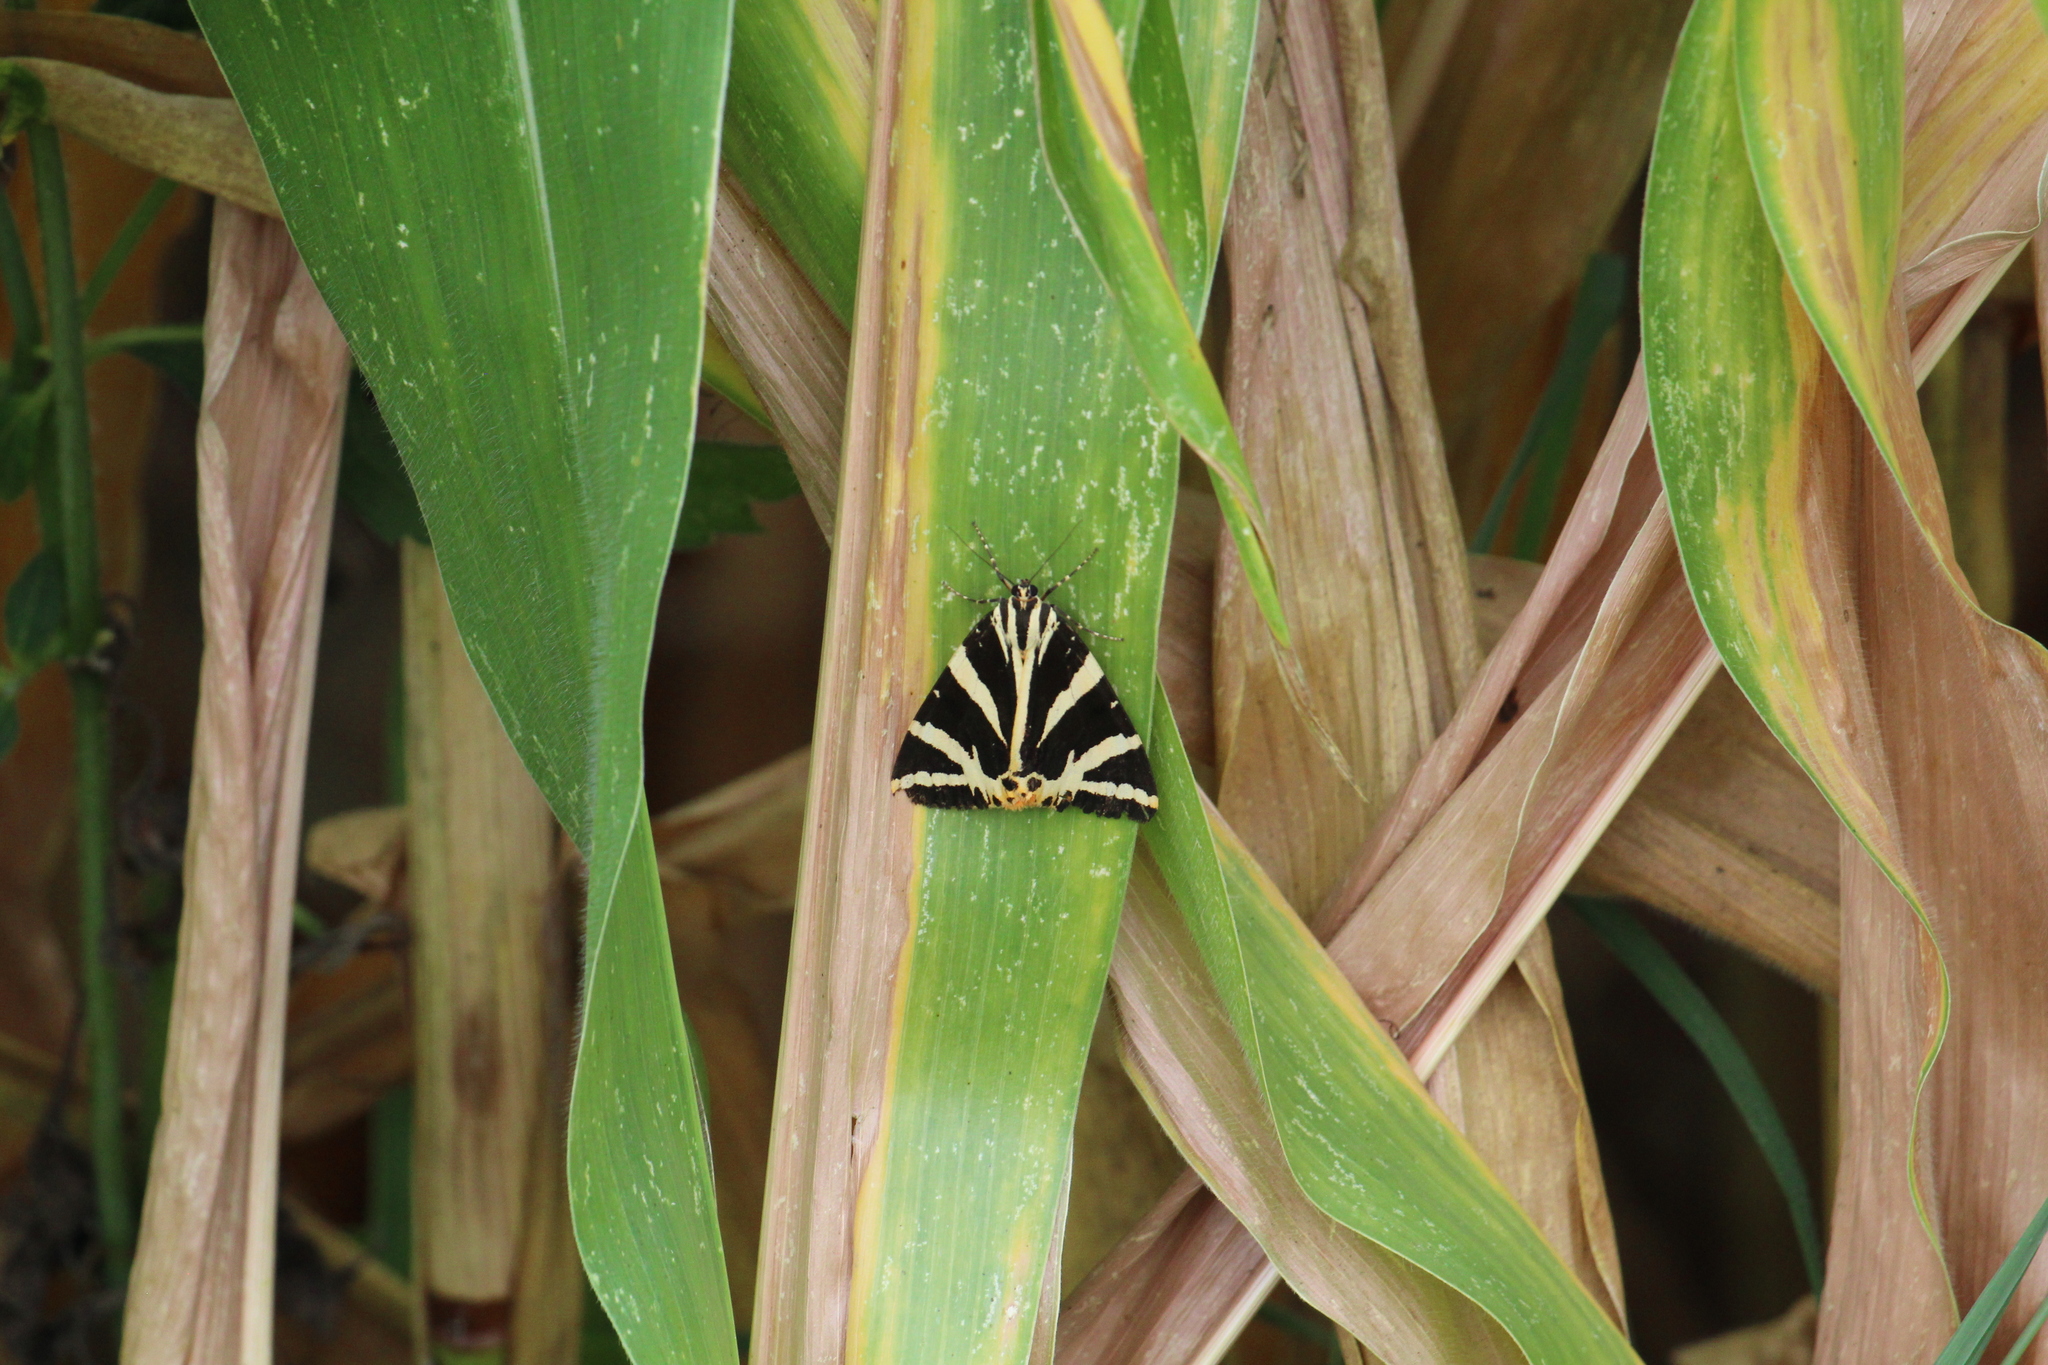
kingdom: Animalia
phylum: Arthropoda
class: Insecta
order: Lepidoptera
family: Erebidae
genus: Euplagia
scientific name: Euplagia quadripunctaria
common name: Jersey tiger
